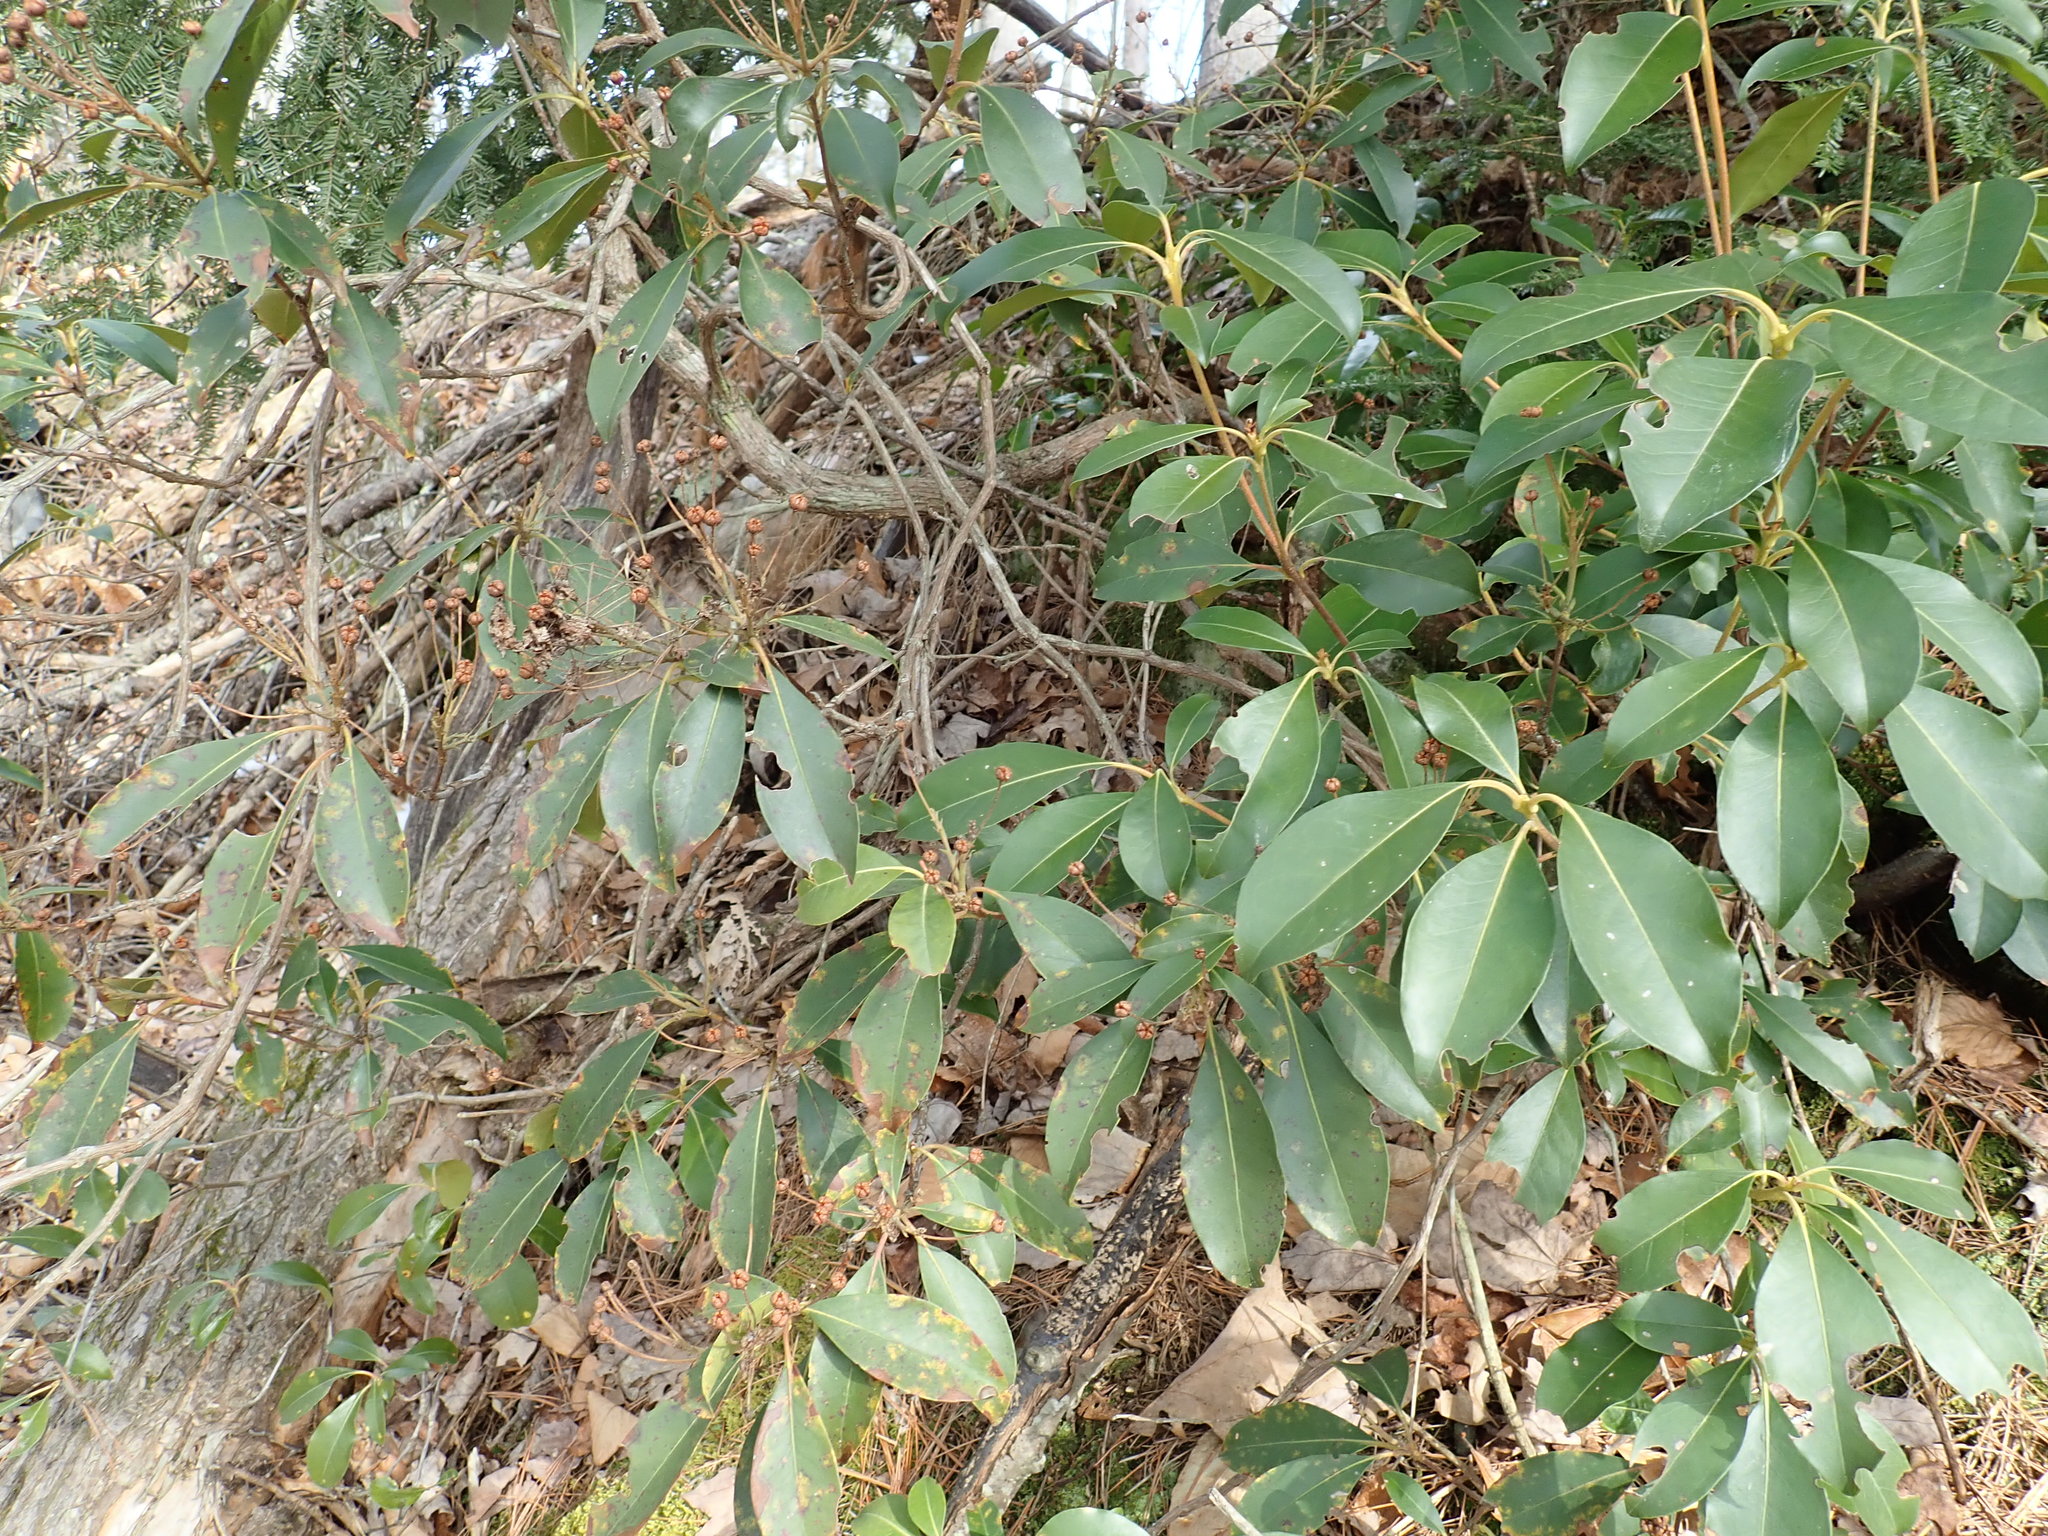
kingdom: Plantae
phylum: Tracheophyta
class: Magnoliopsida
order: Ericales
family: Ericaceae
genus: Kalmia
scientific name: Kalmia latifolia
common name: Mountain-laurel
